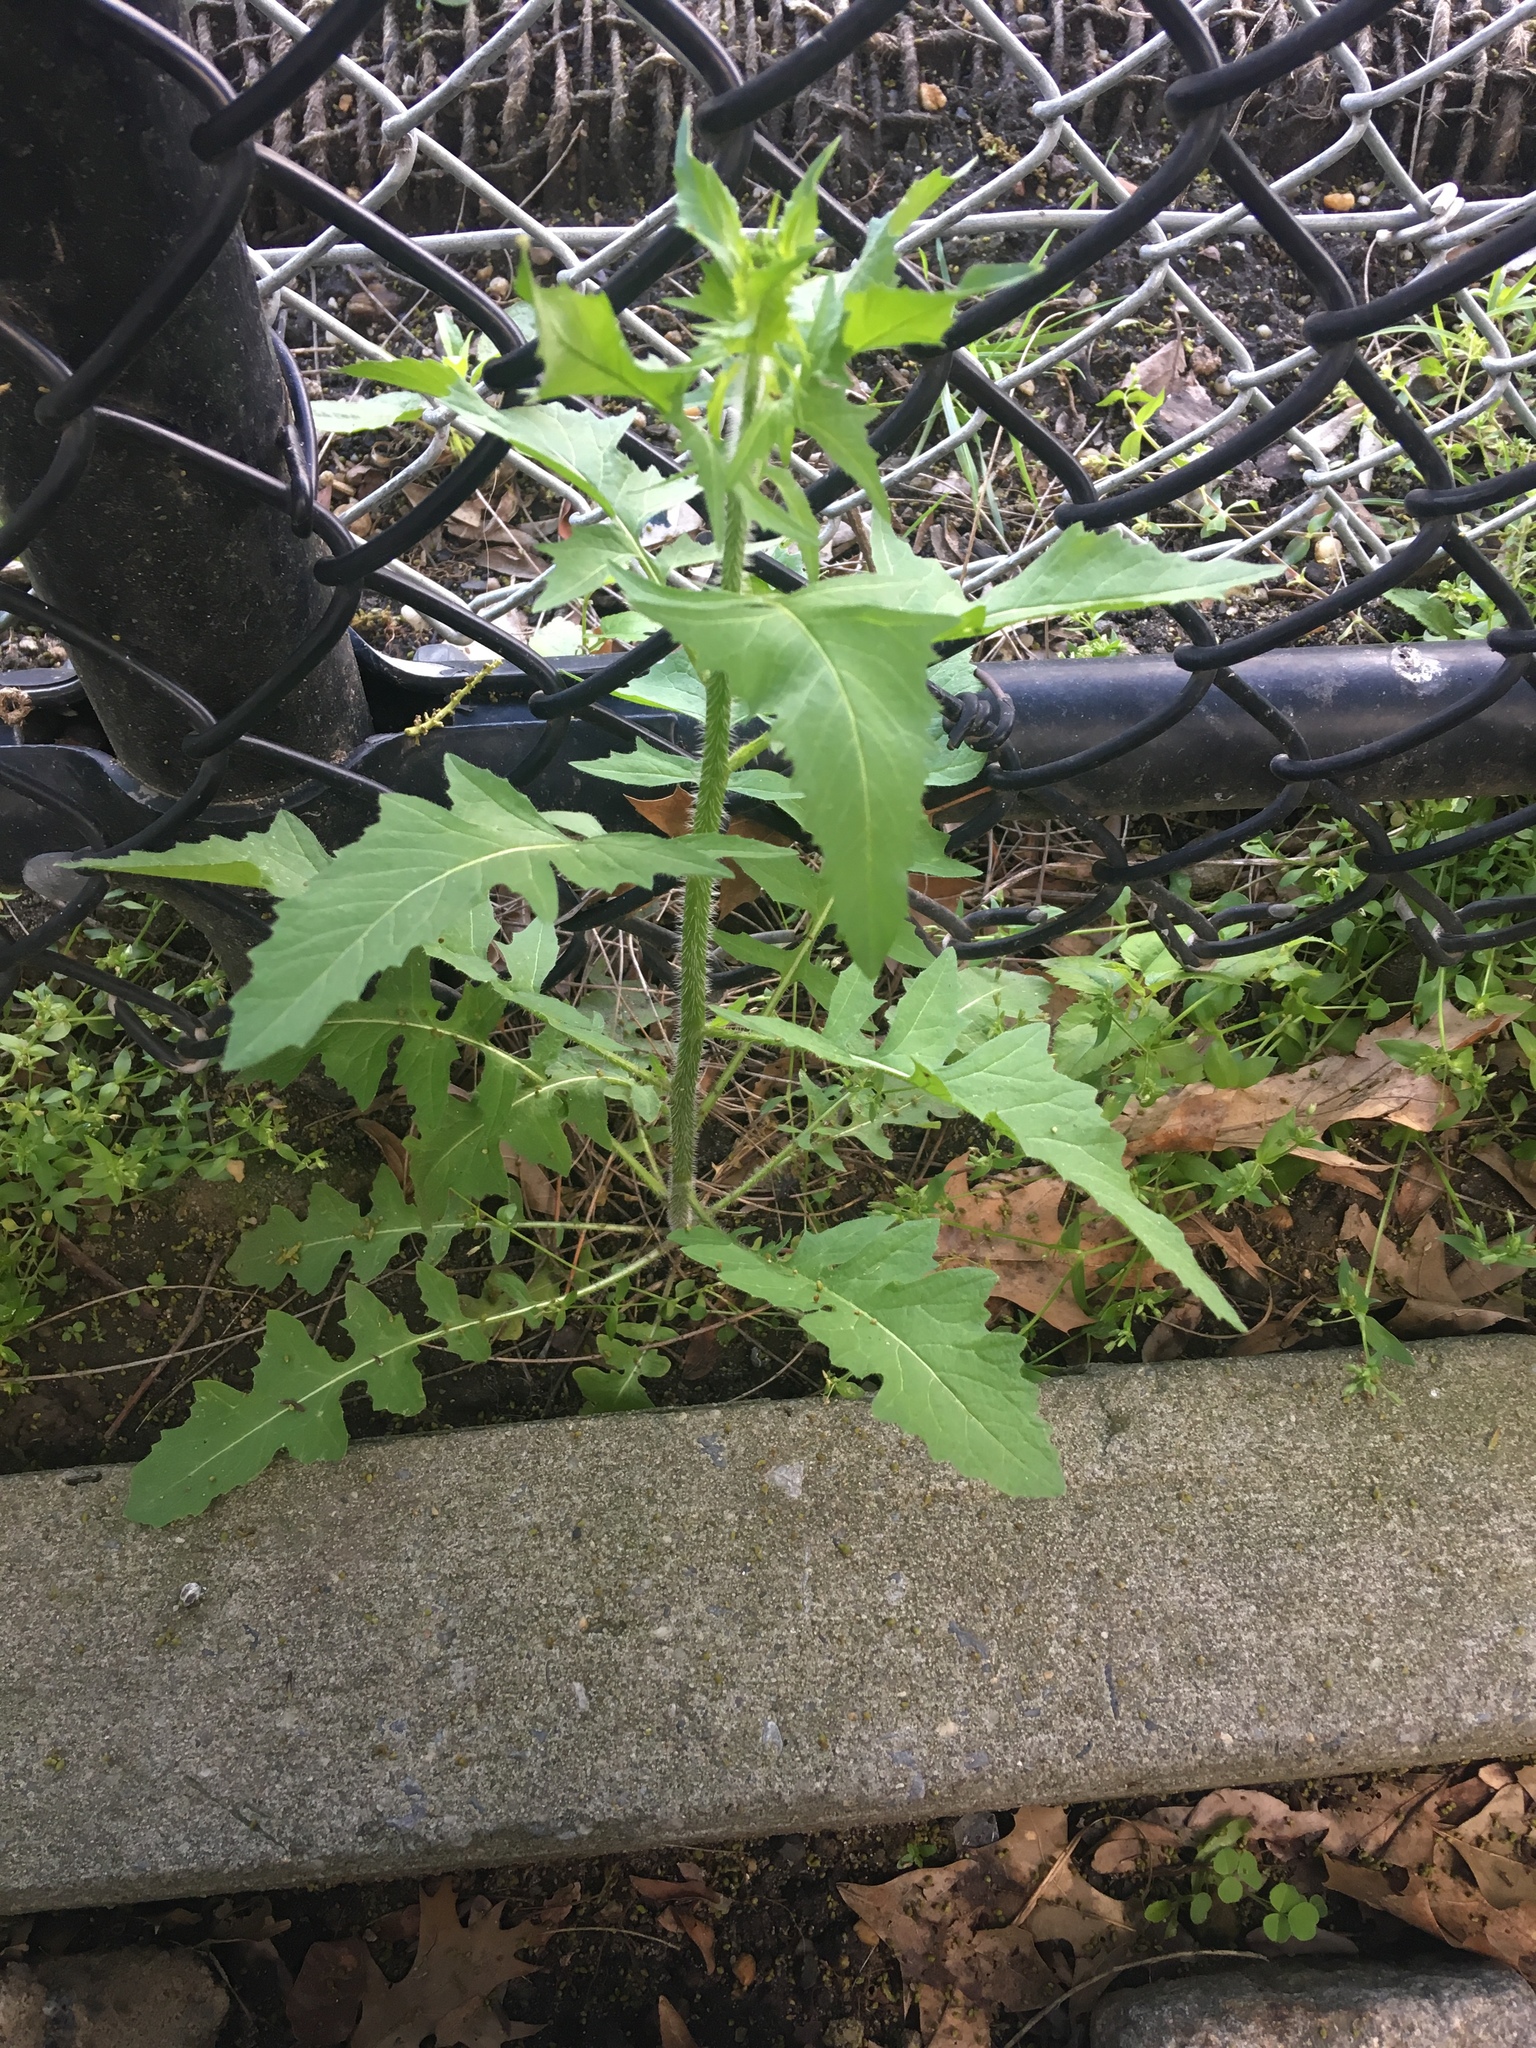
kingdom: Plantae
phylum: Tracheophyta
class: Magnoliopsida
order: Brassicales
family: Brassicaceae
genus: Sisymbrium
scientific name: Sisymbrium loeselii
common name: False london-rocket
